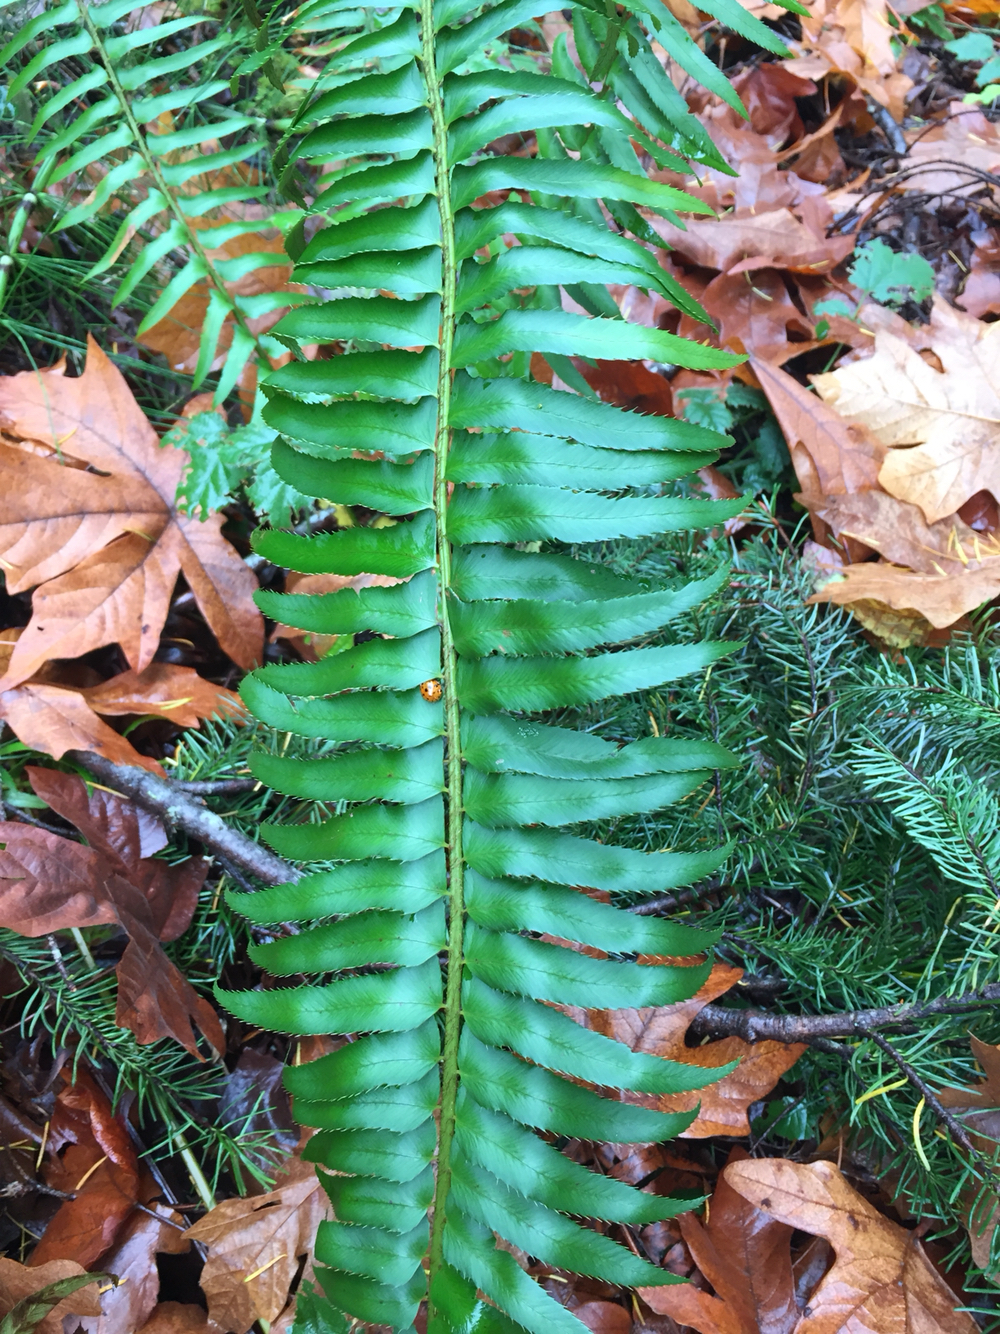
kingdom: Plantae
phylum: Tracheophyta
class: Polypodiopsida
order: Polypodiales
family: Dryopteridaceae
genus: Polystichum
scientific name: Polystichum munitum
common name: Western sword-fern
